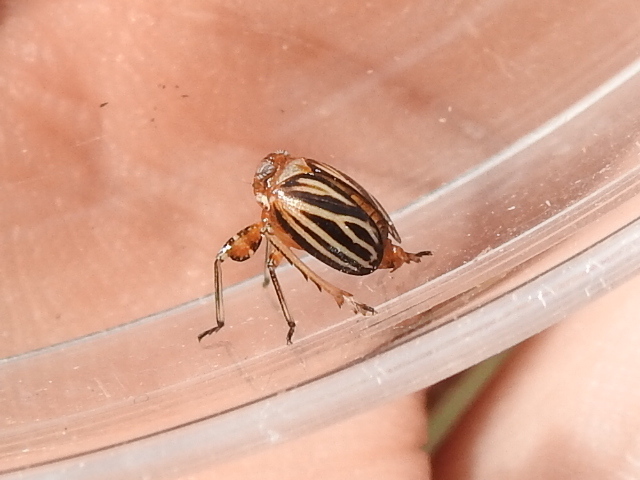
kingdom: Animalia
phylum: Arthropoda
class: Insecta
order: Hemiptera
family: Achilidae
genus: Isodaemon
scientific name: Isodaemon orontes
